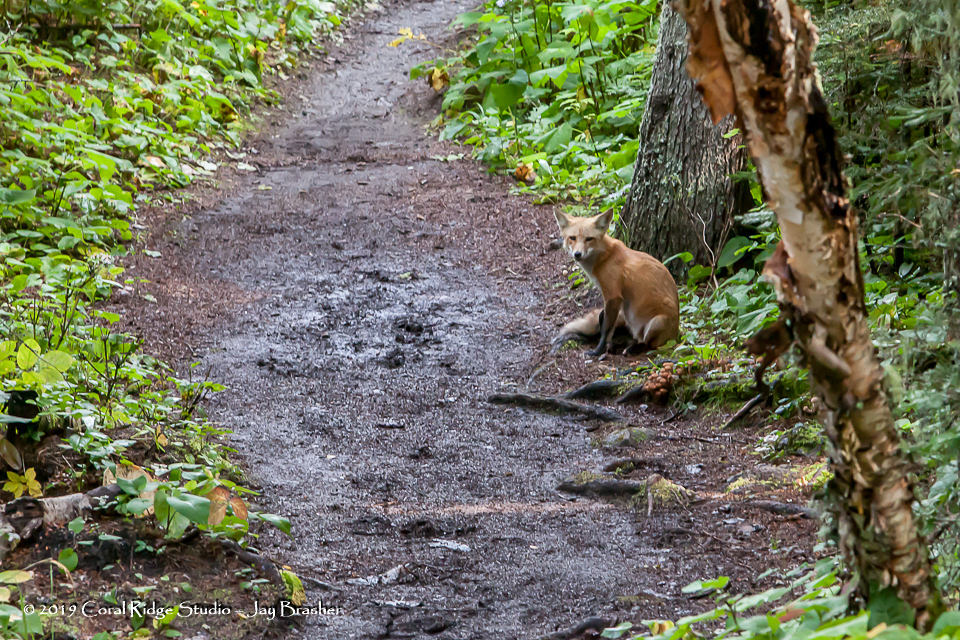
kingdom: Animalia
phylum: Chordata
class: Mammalia
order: Carnivora
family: Canidae
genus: Vulpes
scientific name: Vulpes vulpes
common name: Red fox
